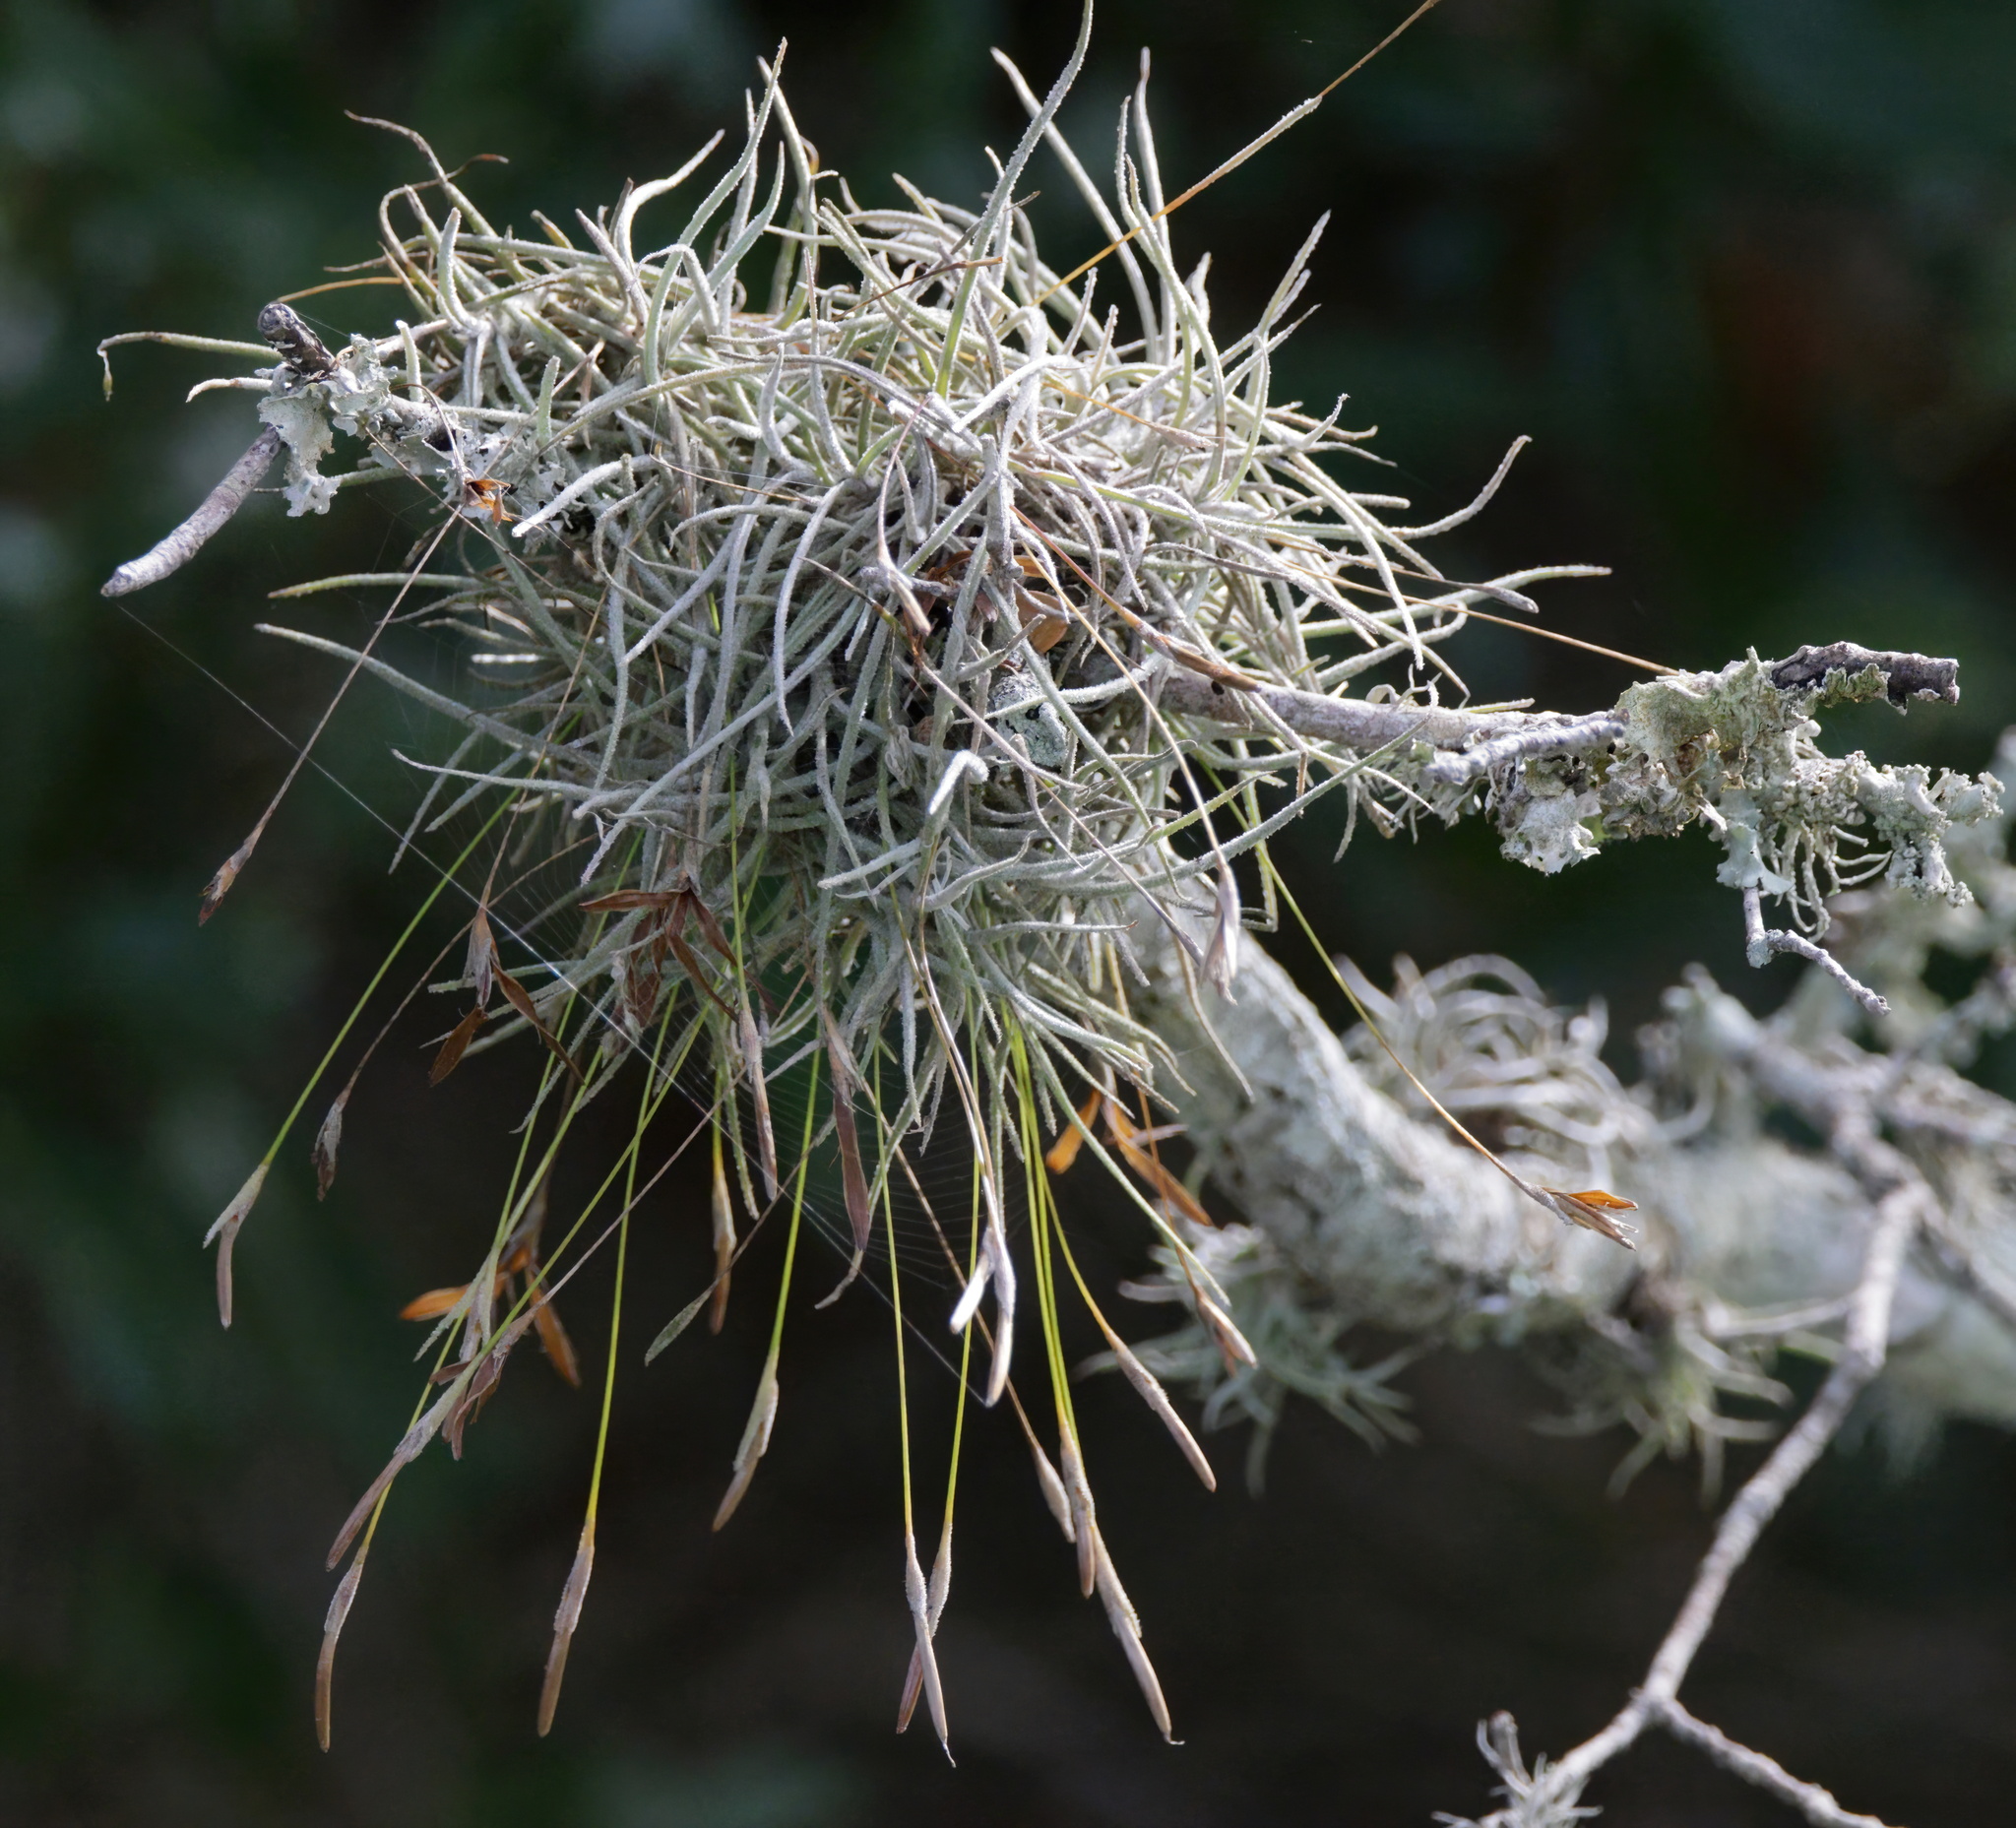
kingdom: Plantae
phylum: Tracheophyta
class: Liliopsida
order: Poales
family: Bromeliaceae
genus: Tillandsia
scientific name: Tillandsia recurvata
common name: Small ballmoss
